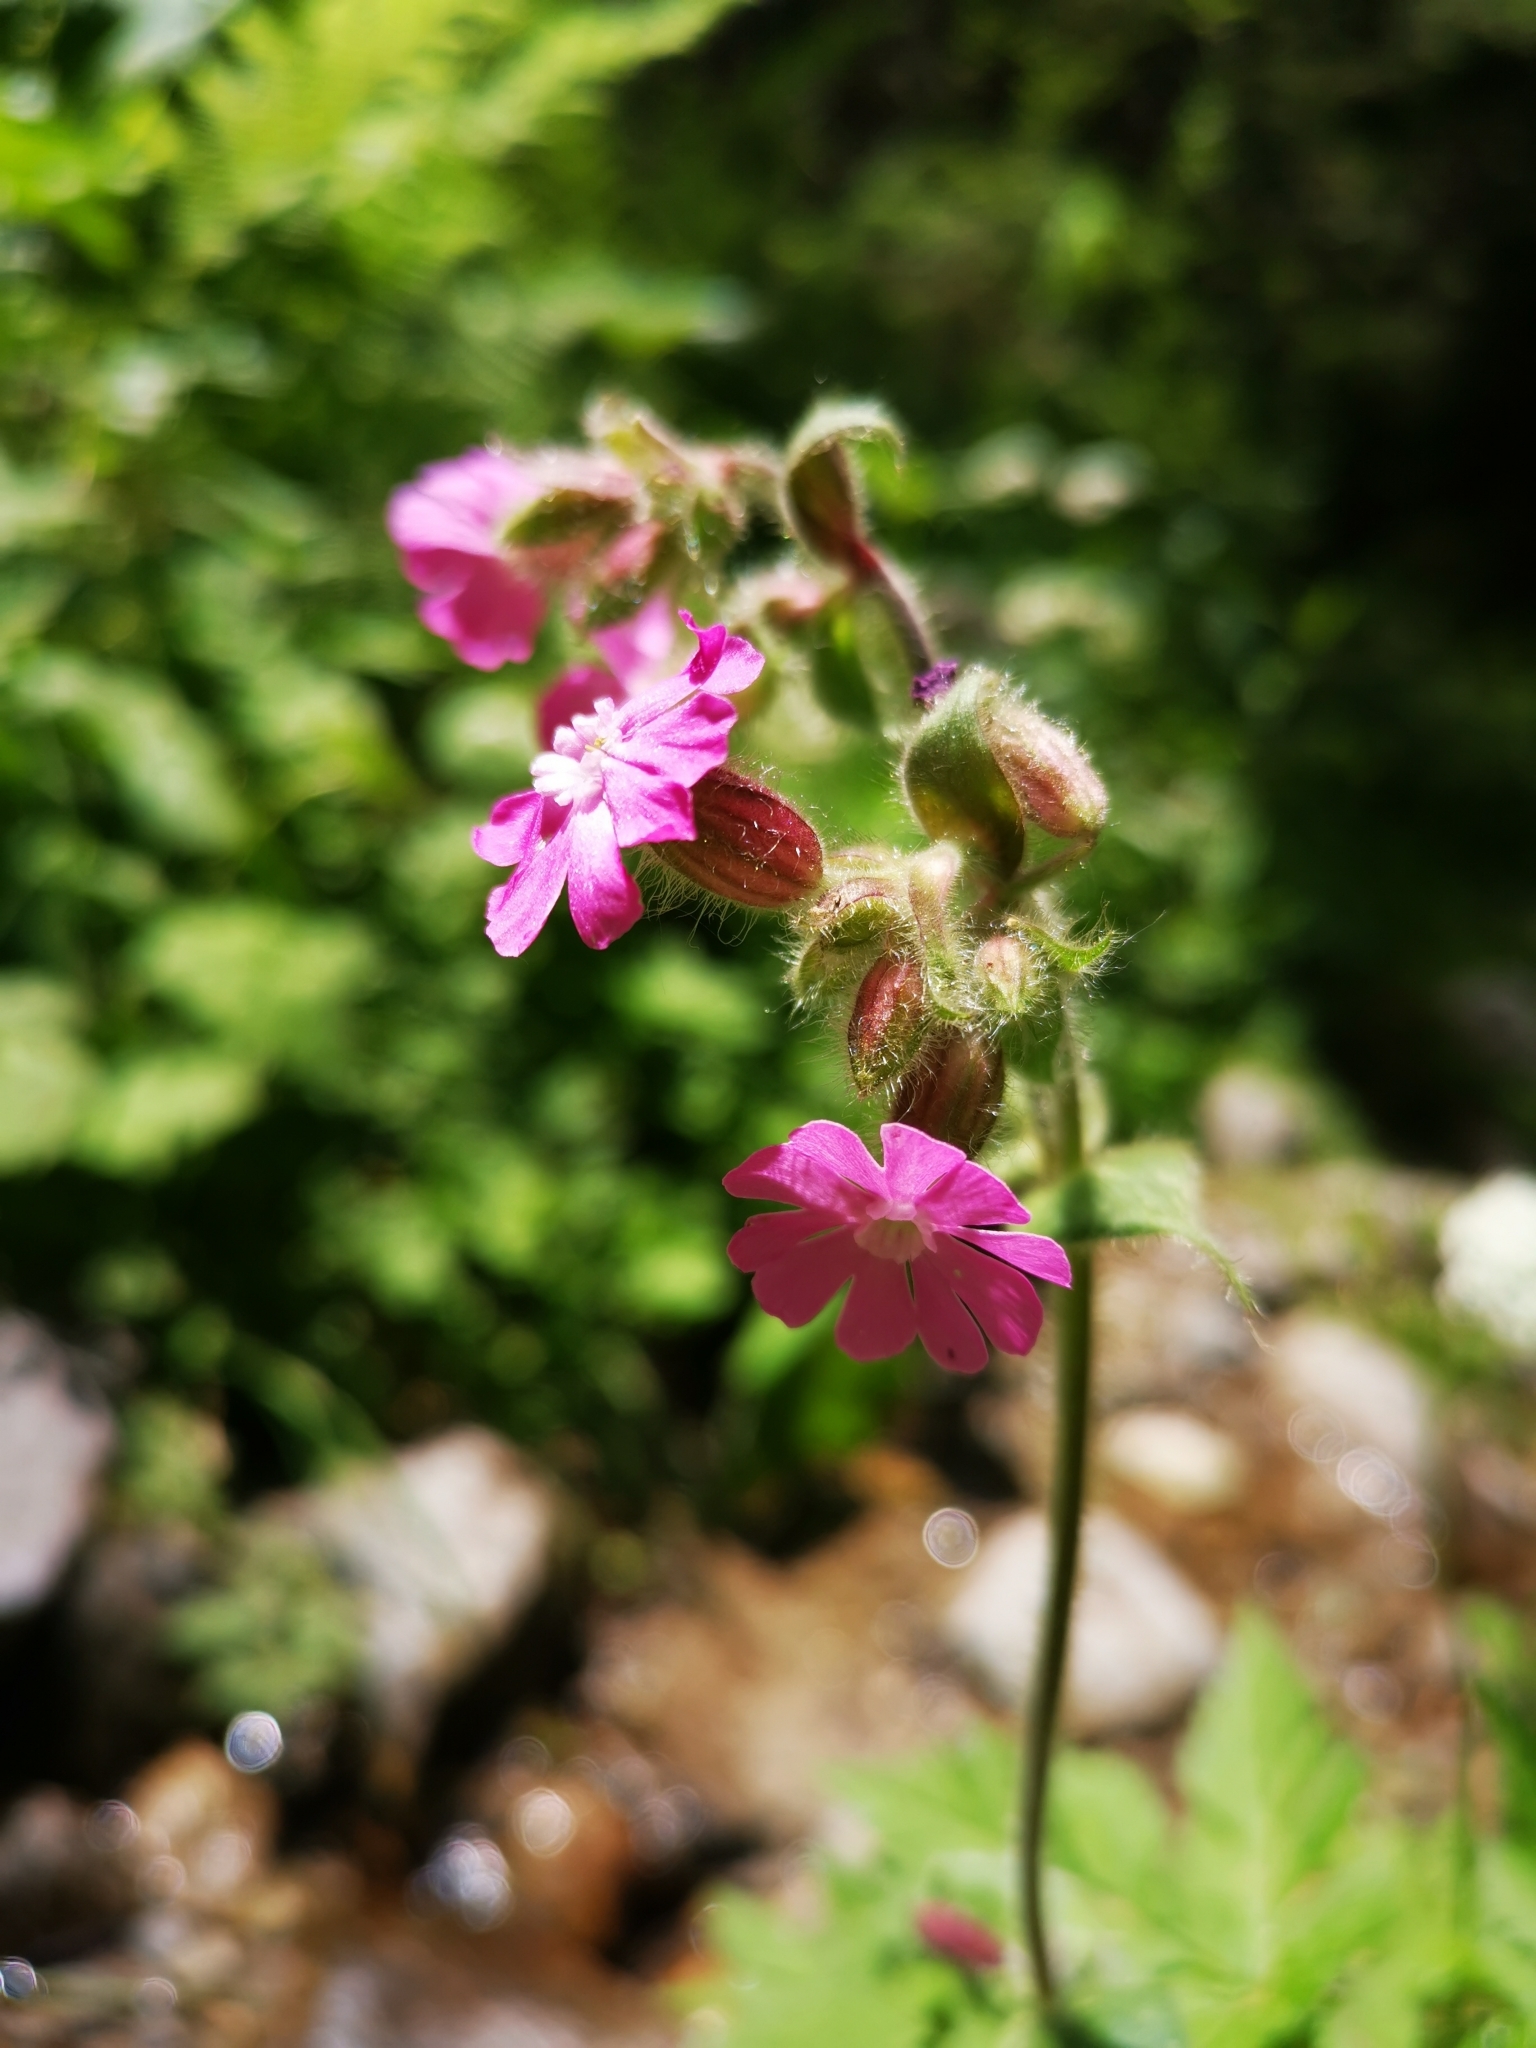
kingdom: Plantae
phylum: Tracheophyta
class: Magnoliopsida
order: Caryophyllales
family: Caryophyllaceae
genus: Silene
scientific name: Silene dioica
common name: Red campion
